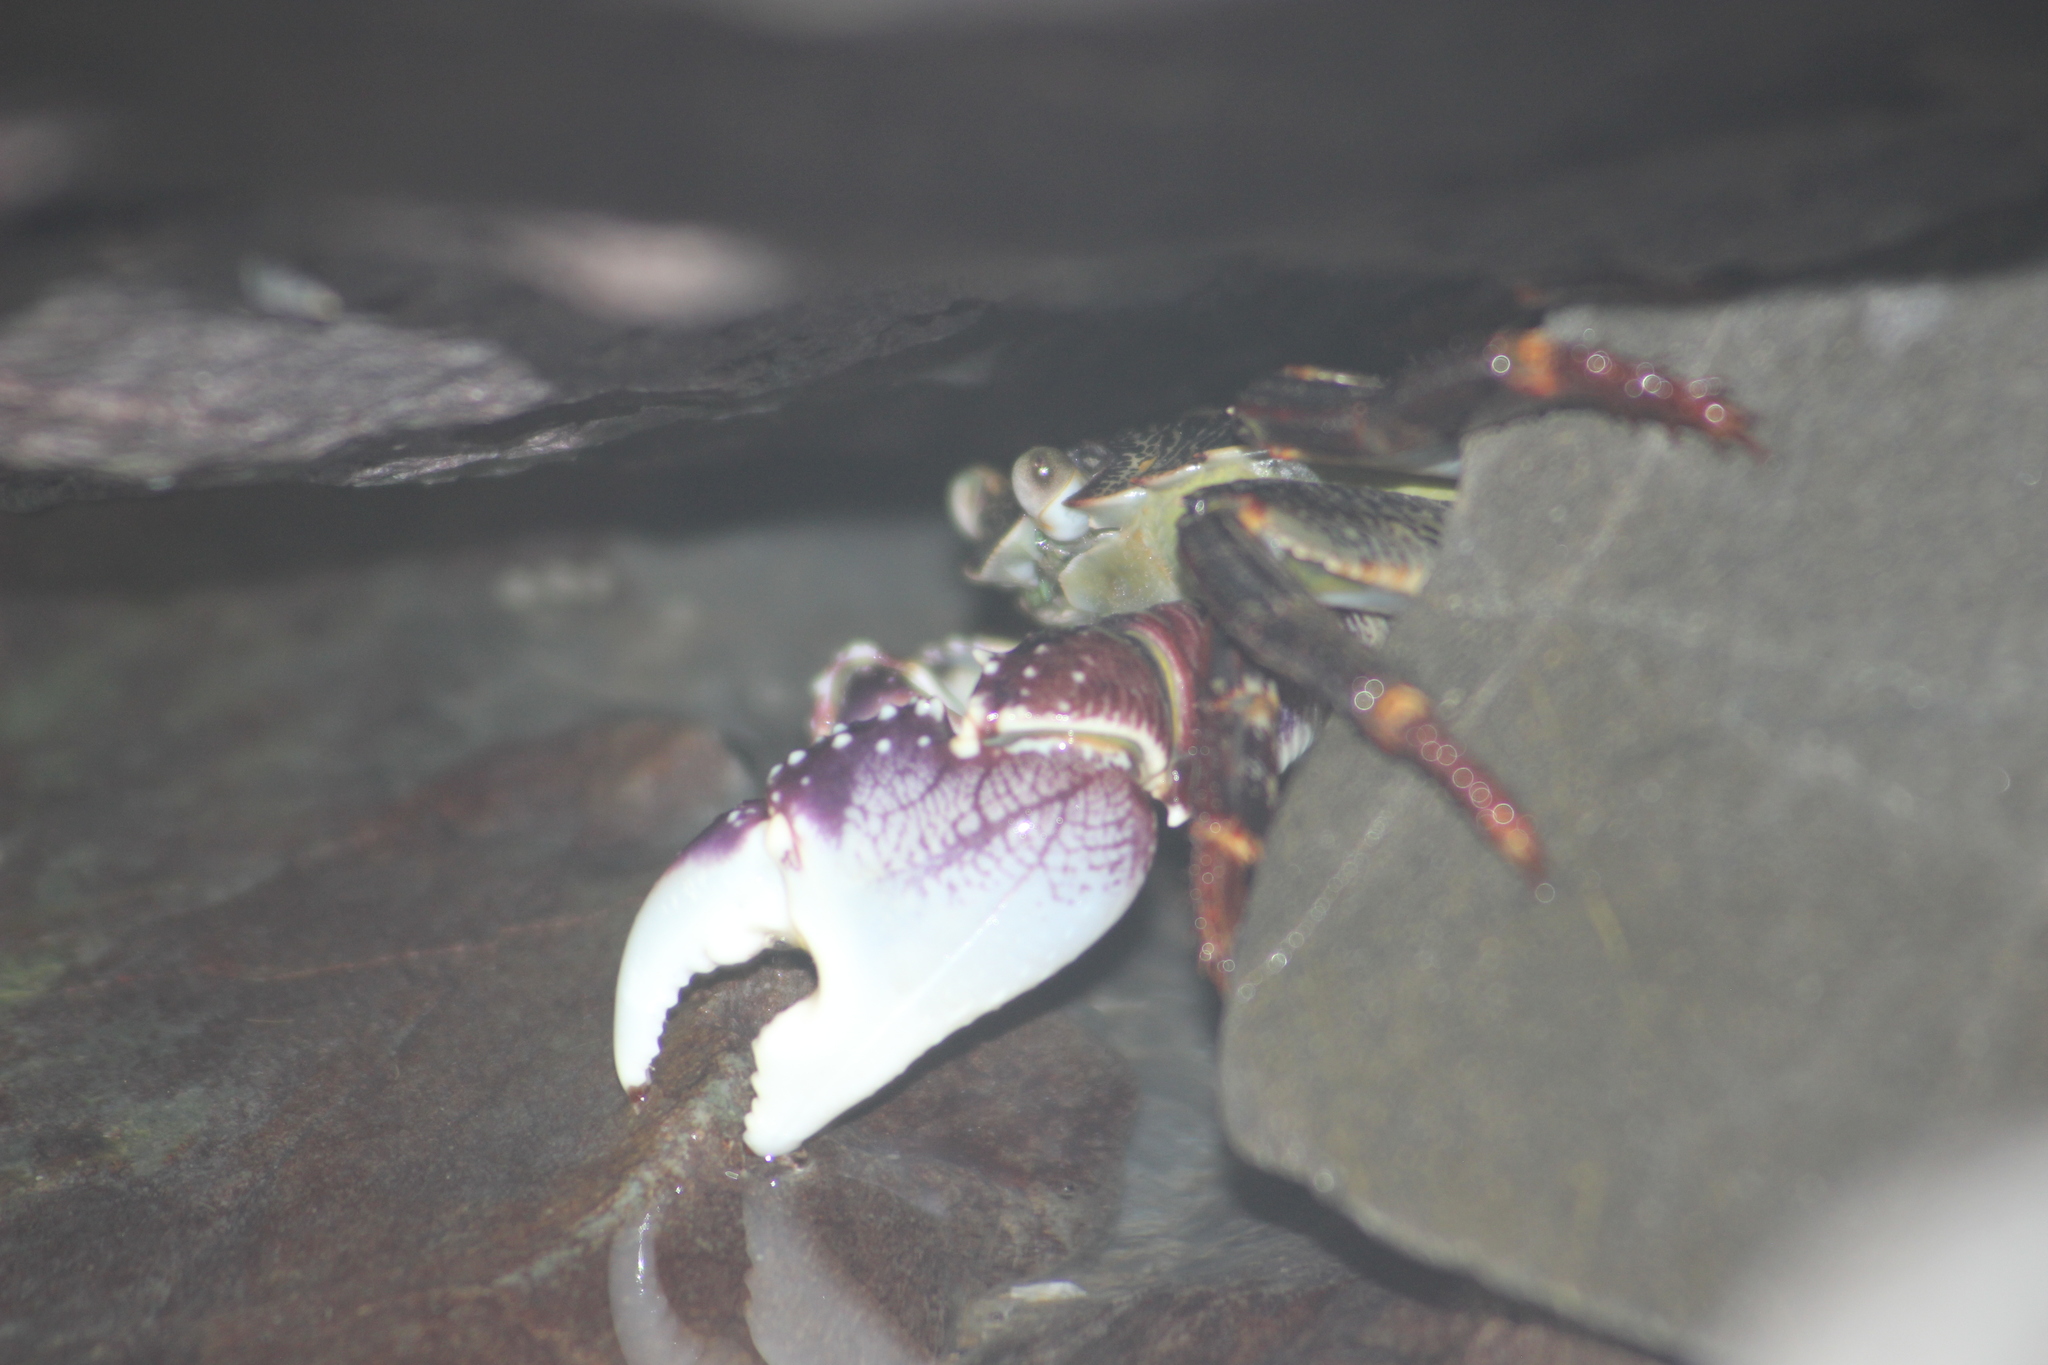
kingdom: Animalia
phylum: Arthropoda
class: Malacostraca
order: Decapoda
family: Grapsidae
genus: Leptograpsus
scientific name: Leptograpsus variegatus
